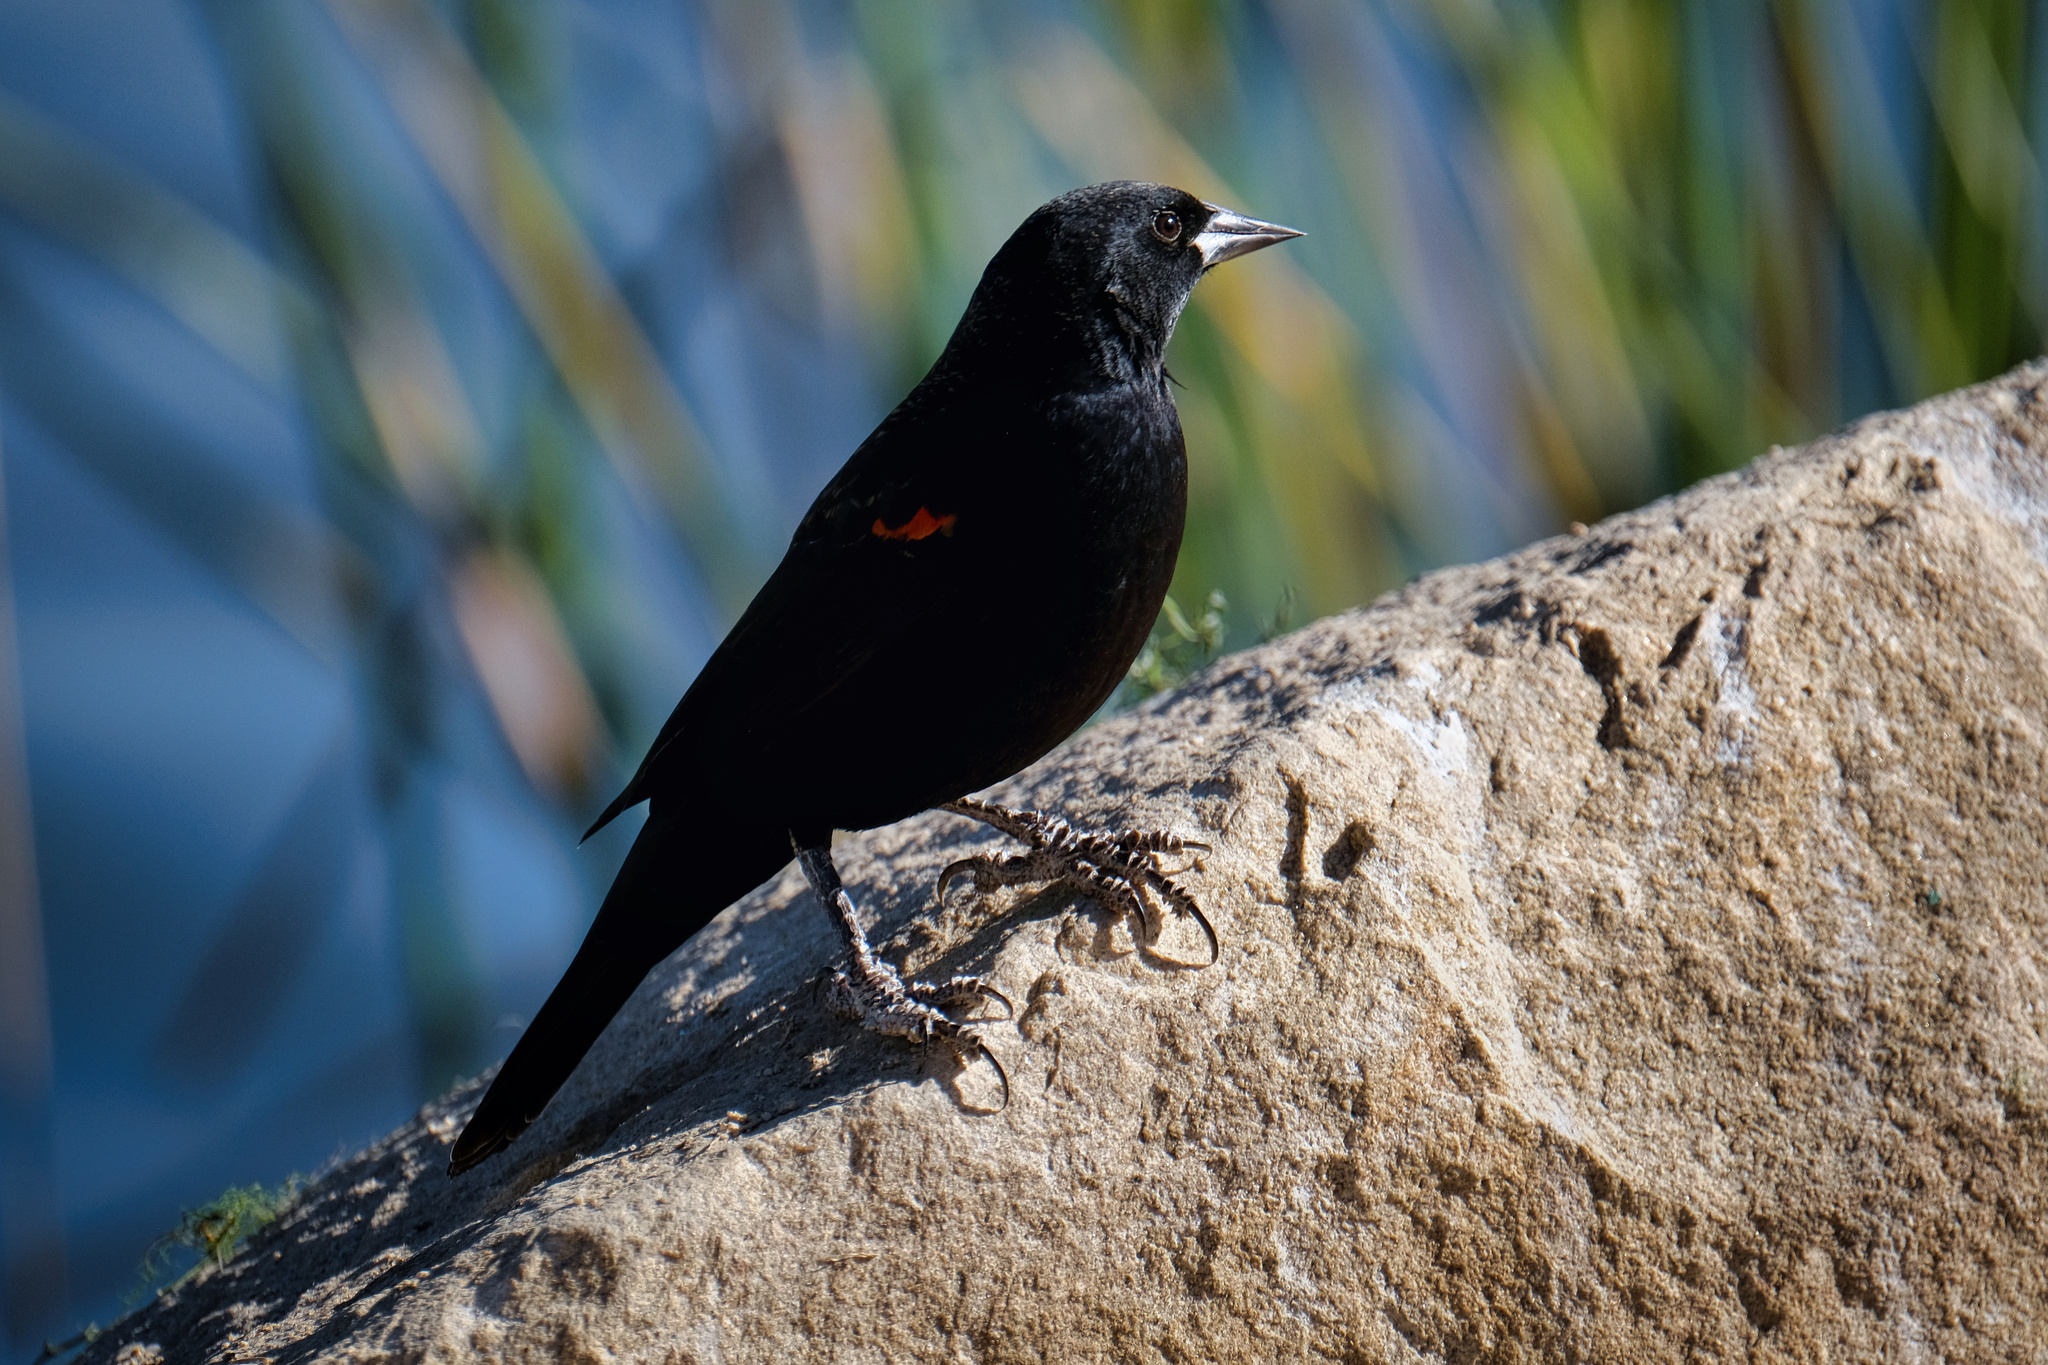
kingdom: Animalia
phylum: Chordata
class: Aves
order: Passeriformes
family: Icteridae
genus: Agelaius
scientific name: Agelaius phoeniceus
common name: Red-winged blackbird
